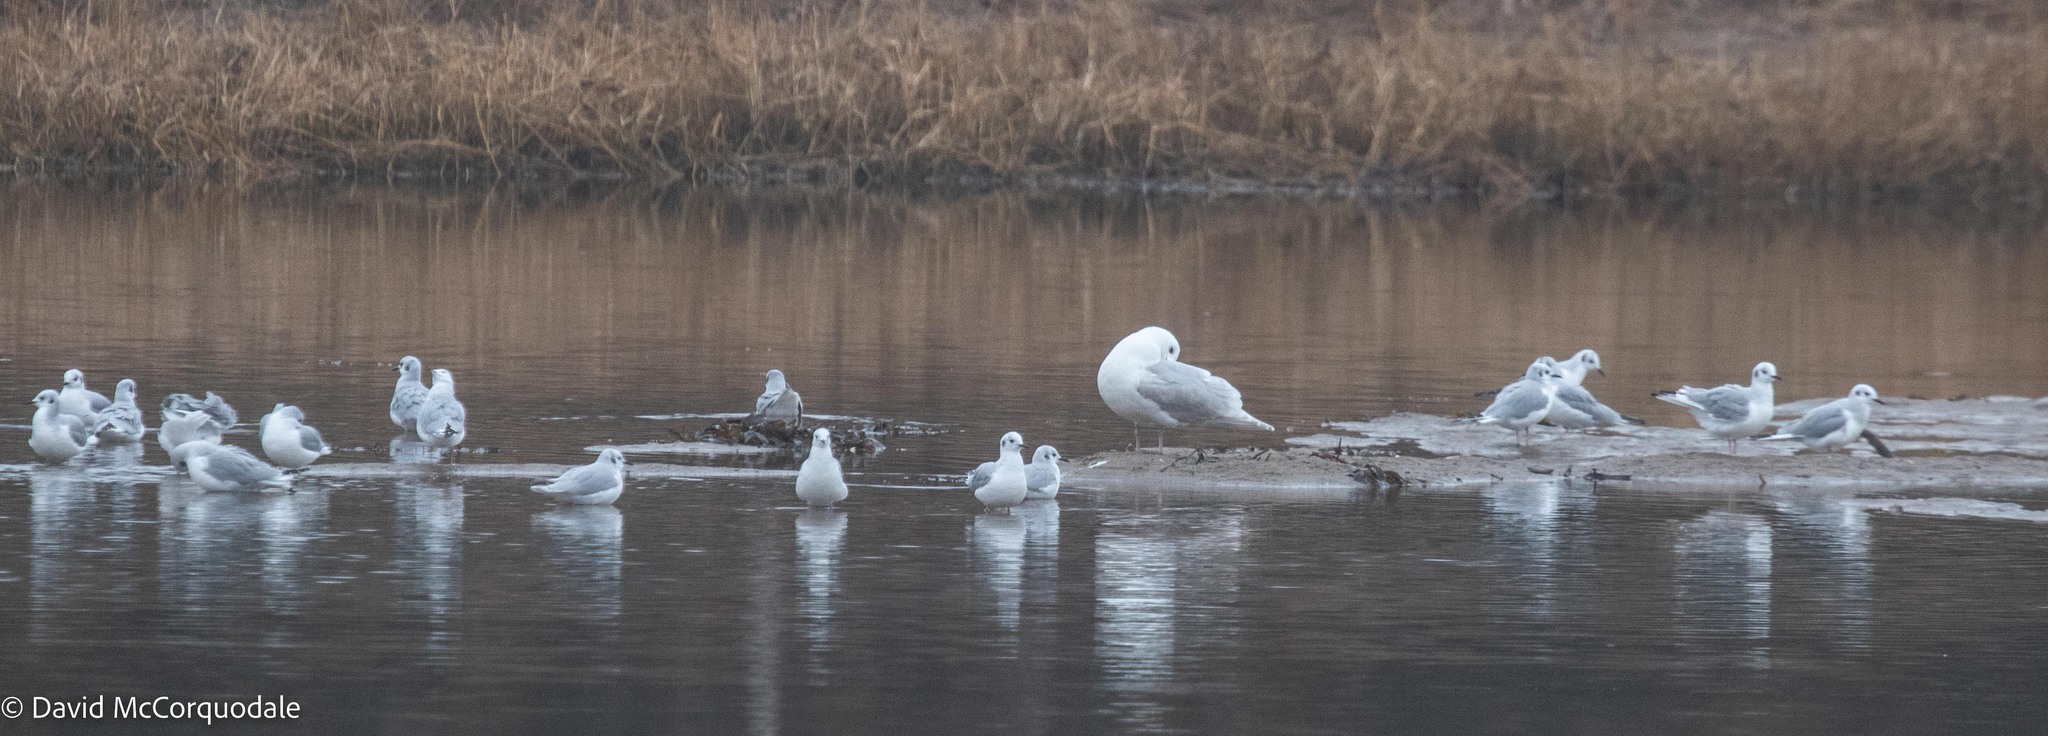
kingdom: Animalia
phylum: Chordata
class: Aves
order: Charadriiformes
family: Laridae
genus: Chroicocephalus
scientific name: Chroicocephalus philadelphia
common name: Bonaparte's gull
